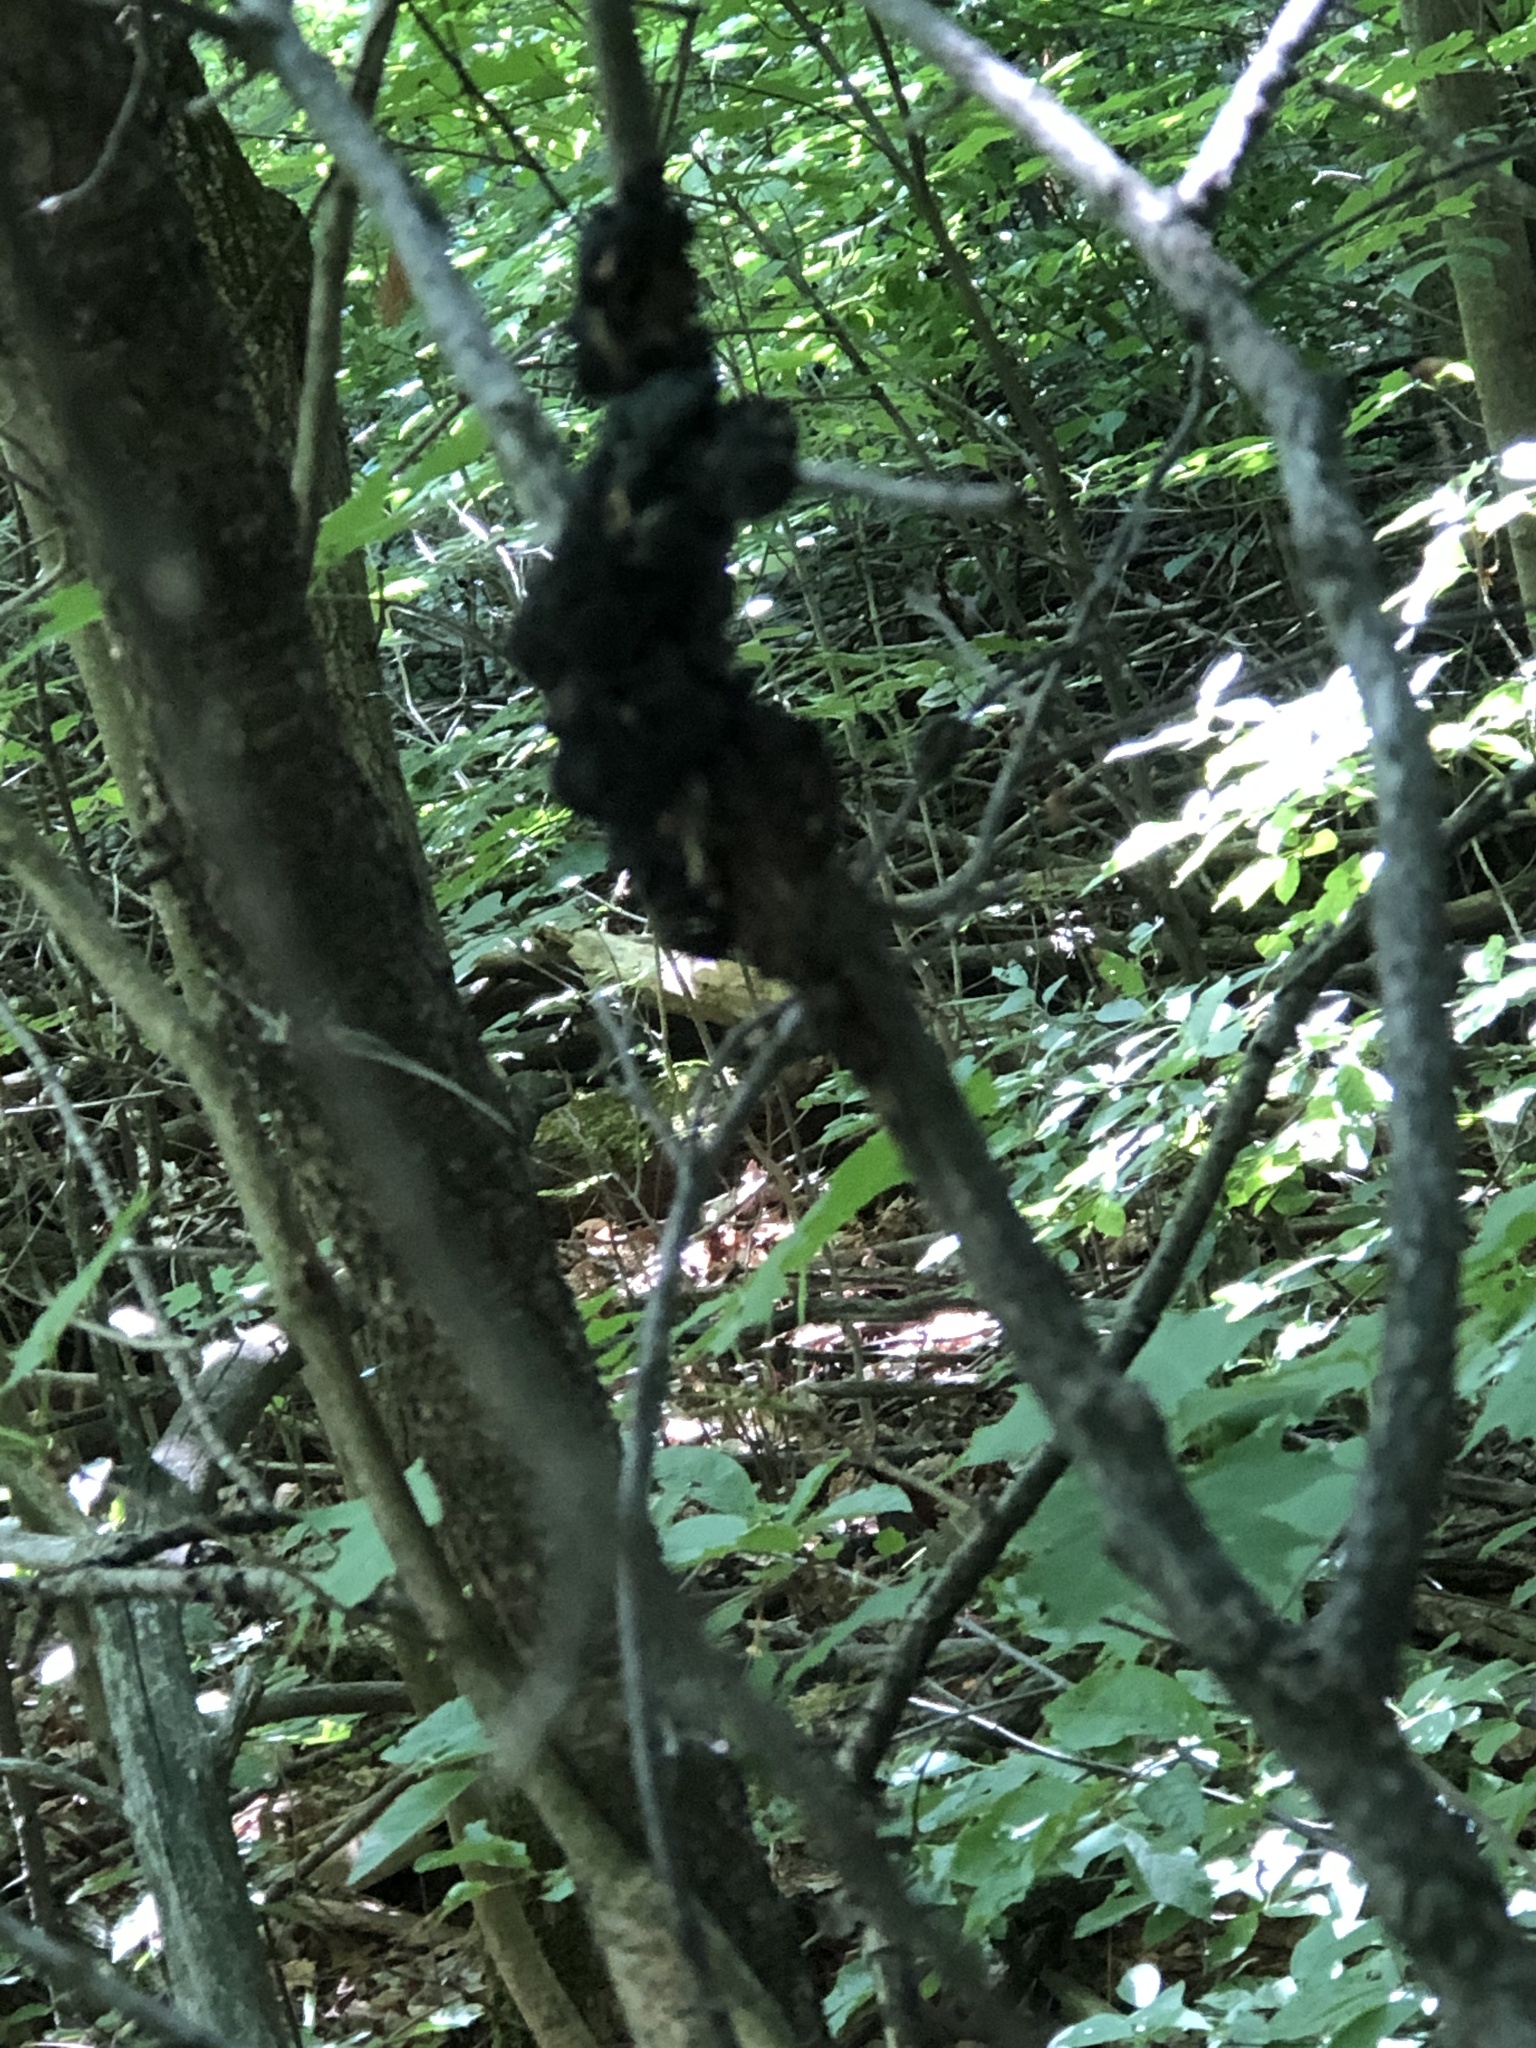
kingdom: Fungi
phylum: Ascomycota
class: Dothideomycetes
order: Venturiales
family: Venturiaceae
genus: Apiosporina
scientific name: Apiosporina morbosa
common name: Black knot
